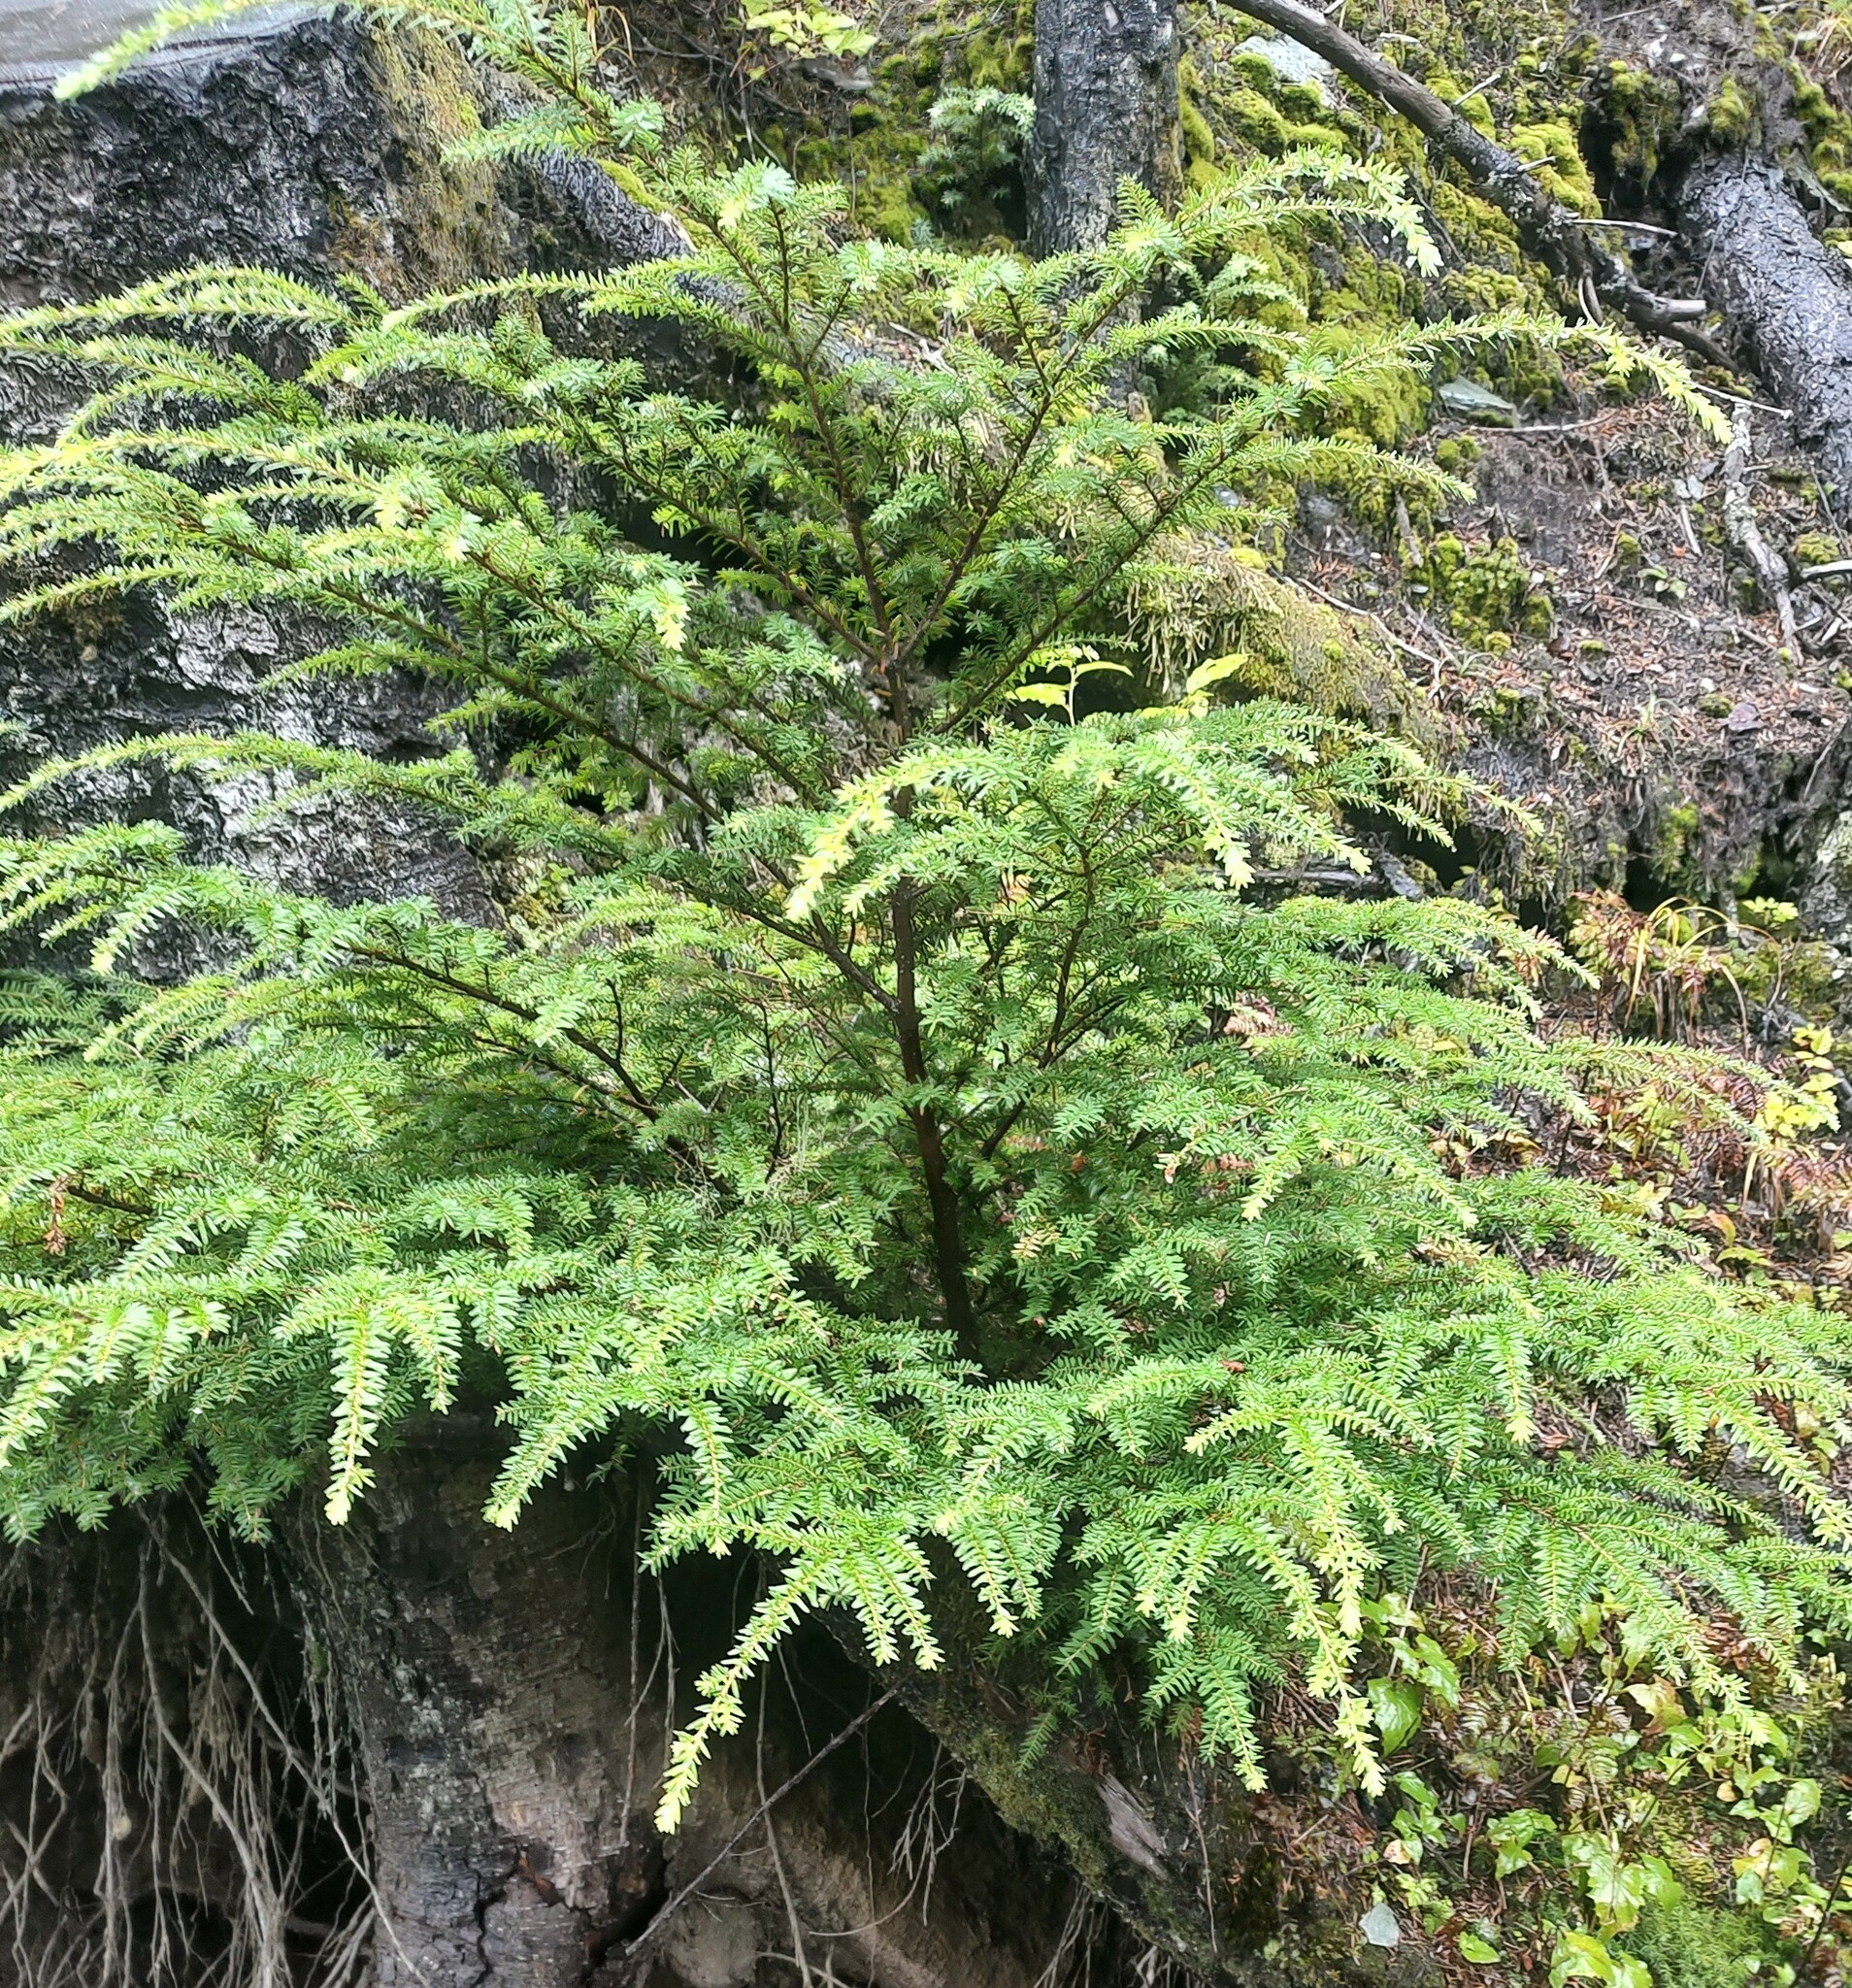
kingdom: Plantae
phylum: Tracheophyta
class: Pinopsida
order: Pinales
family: Pinaceae
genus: Tsuga
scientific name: Tsuga heterophylla
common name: Western hemlock
